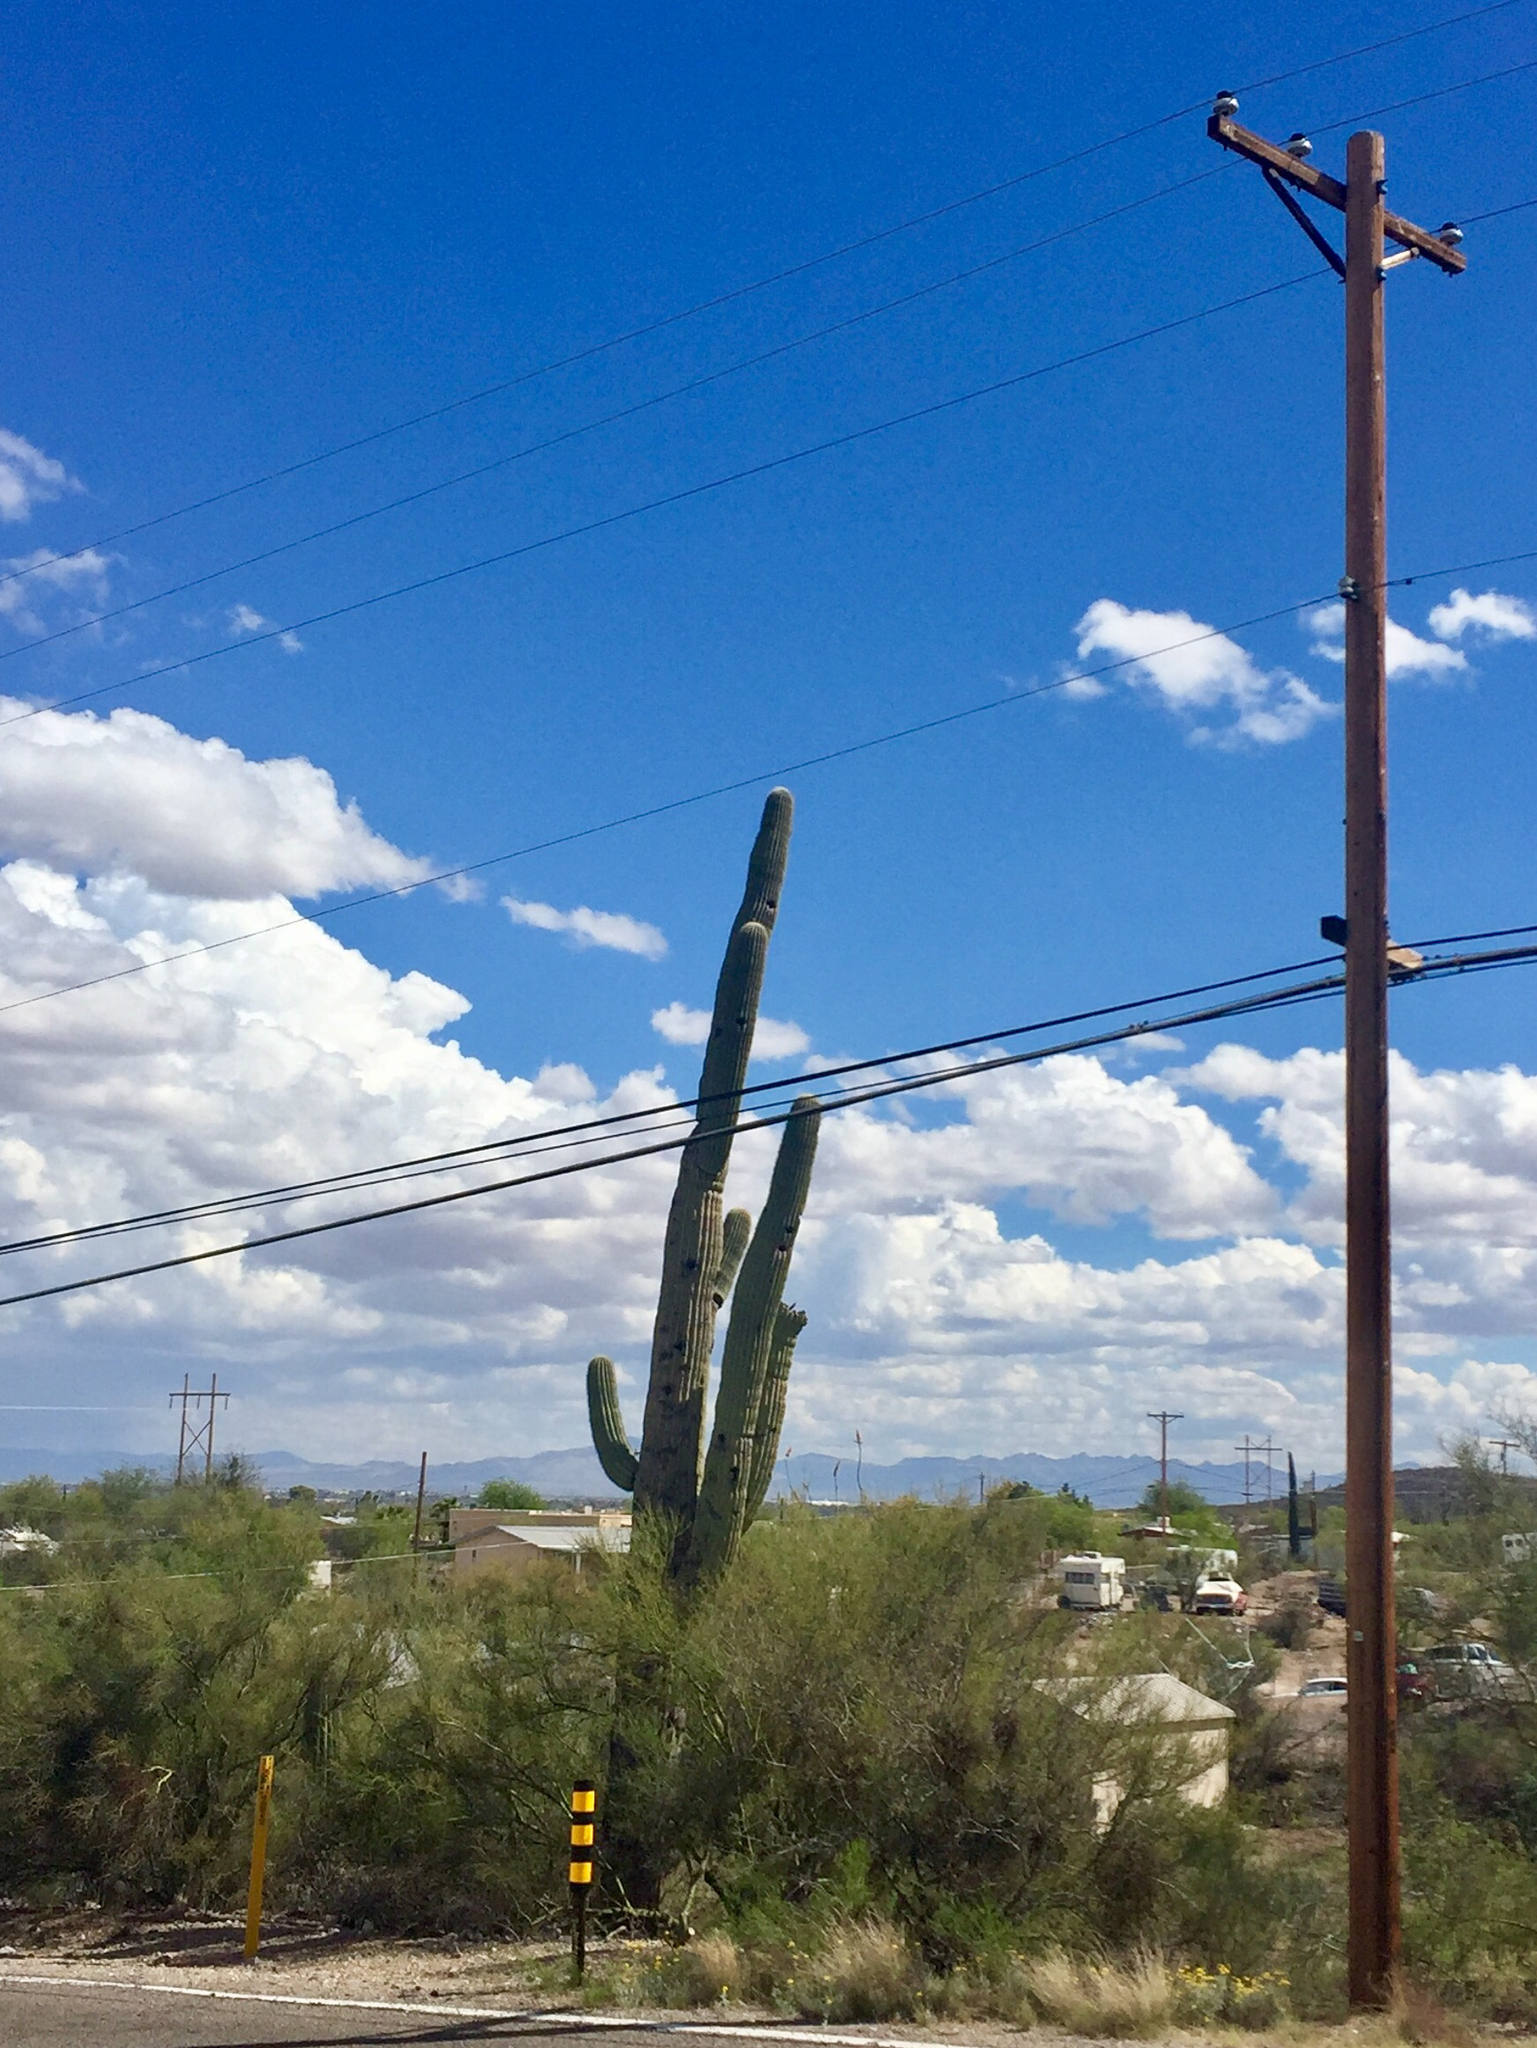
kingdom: Plantae
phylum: Tracheophyta
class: Magnoliopsida
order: Caryophyllales
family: Cactaceae
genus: Carnegiea
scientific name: Carnegiea gigantea
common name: Saguaro
